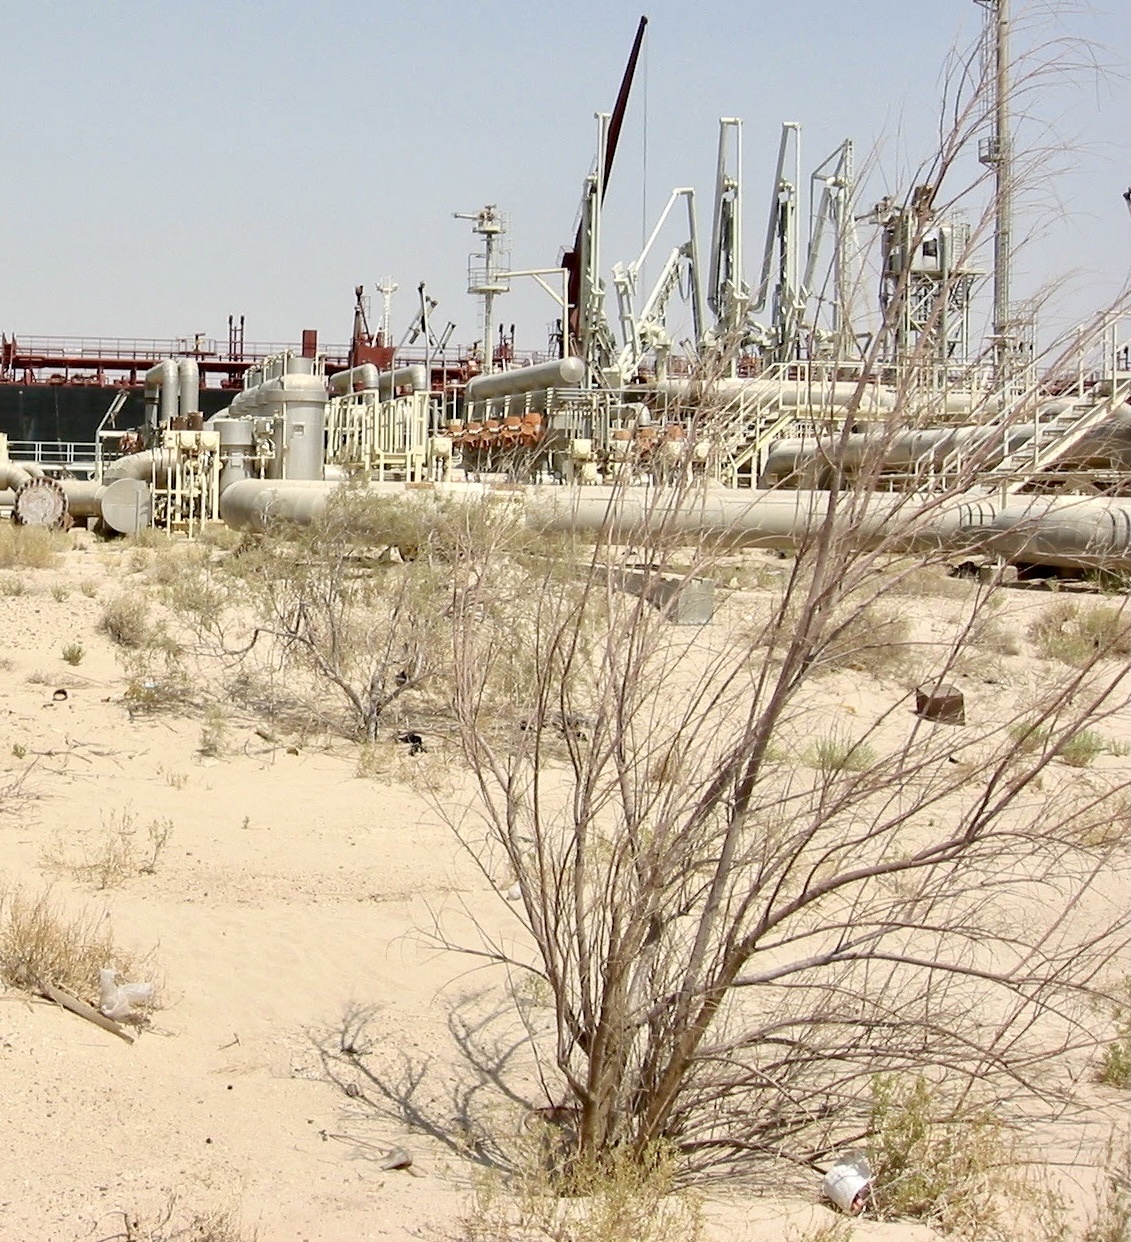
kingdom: Plantae
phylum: Tracheophyta
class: Magnoliopsida
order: Caryophyllales
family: Tamaricaceae
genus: Tamarix
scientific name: Tamarix aucheriana
